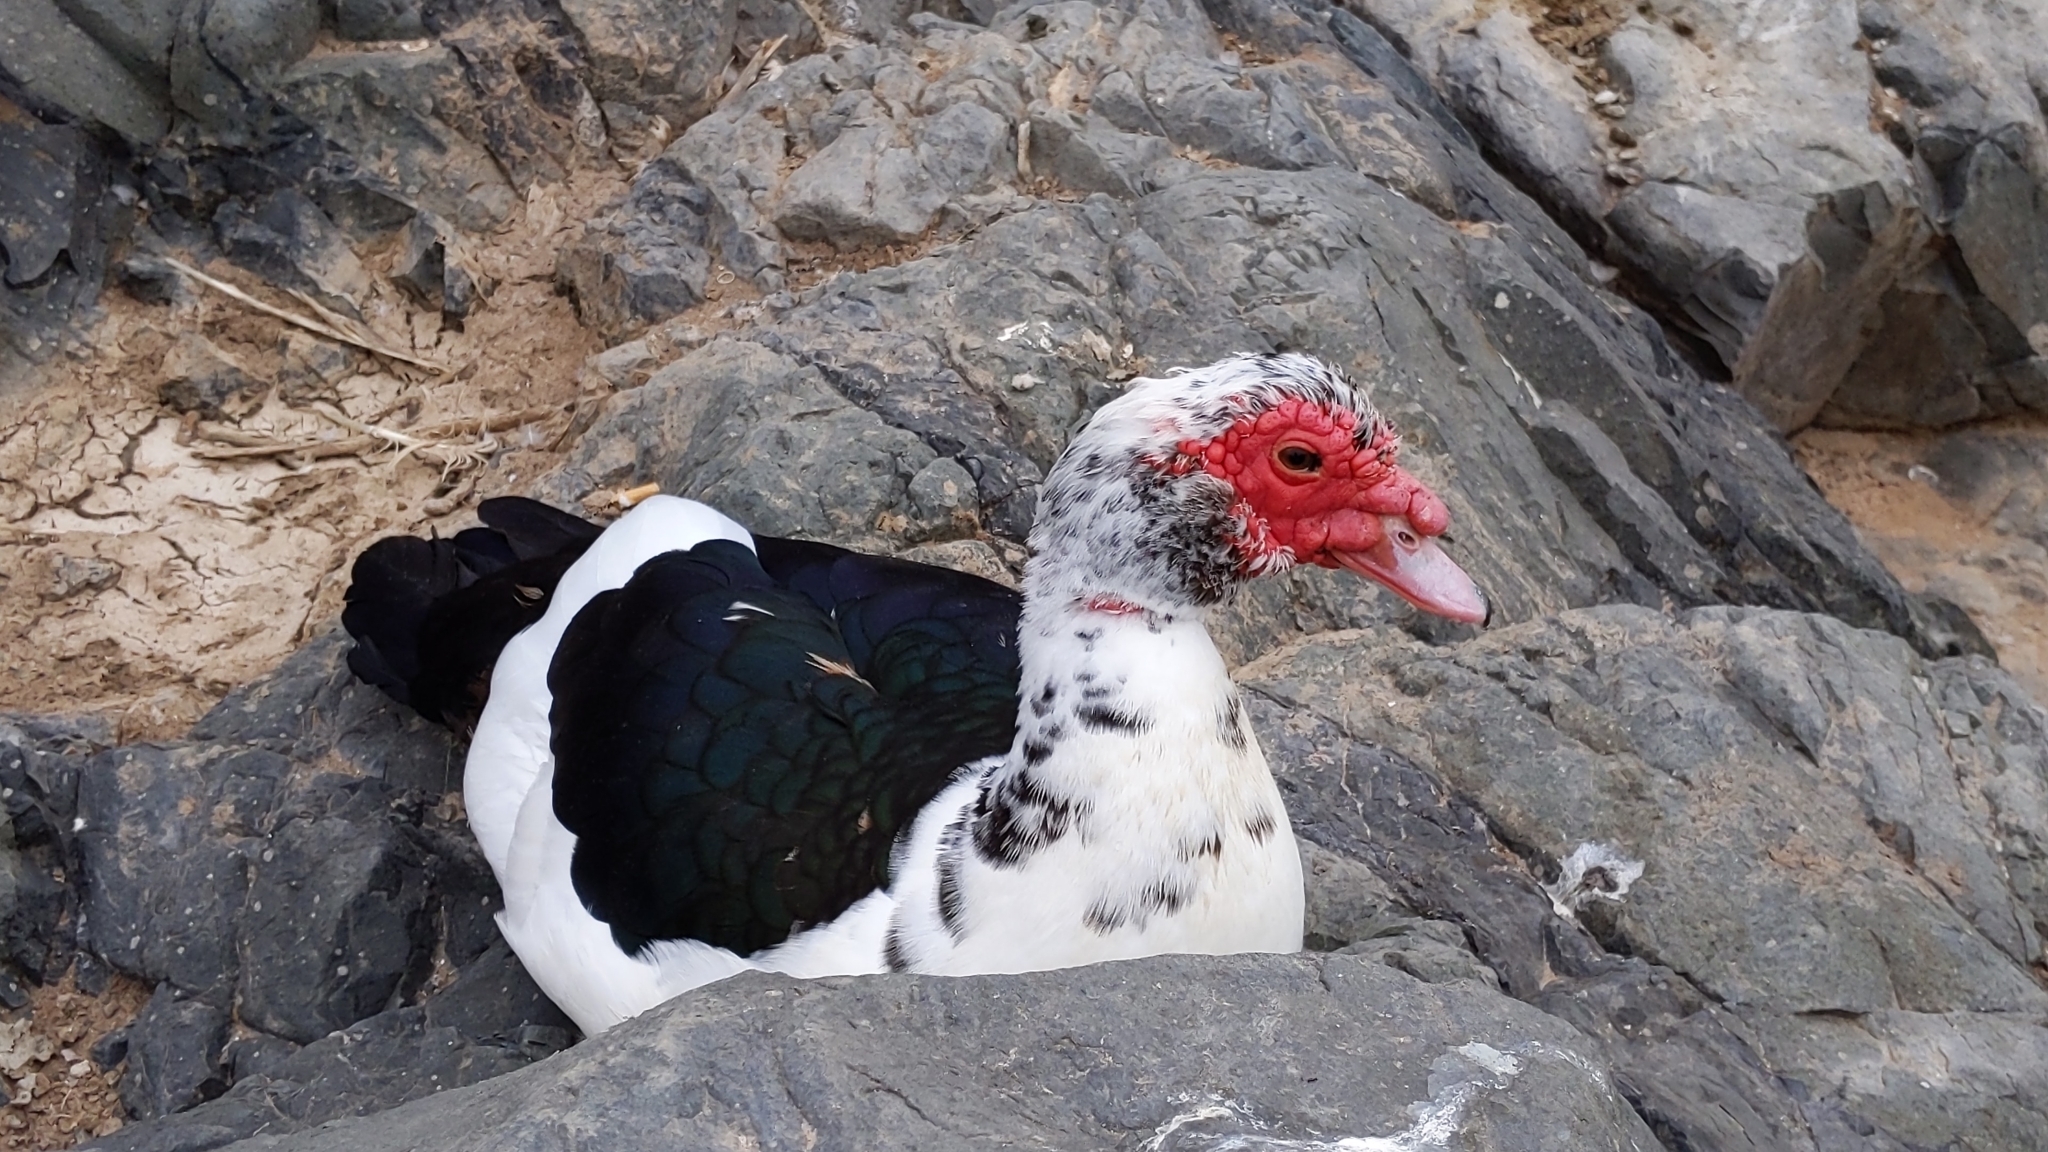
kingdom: Animalia
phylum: Chordata
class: Aves
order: Anseriformes
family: Anatidae
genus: Cairina
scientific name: Cairina moschata
